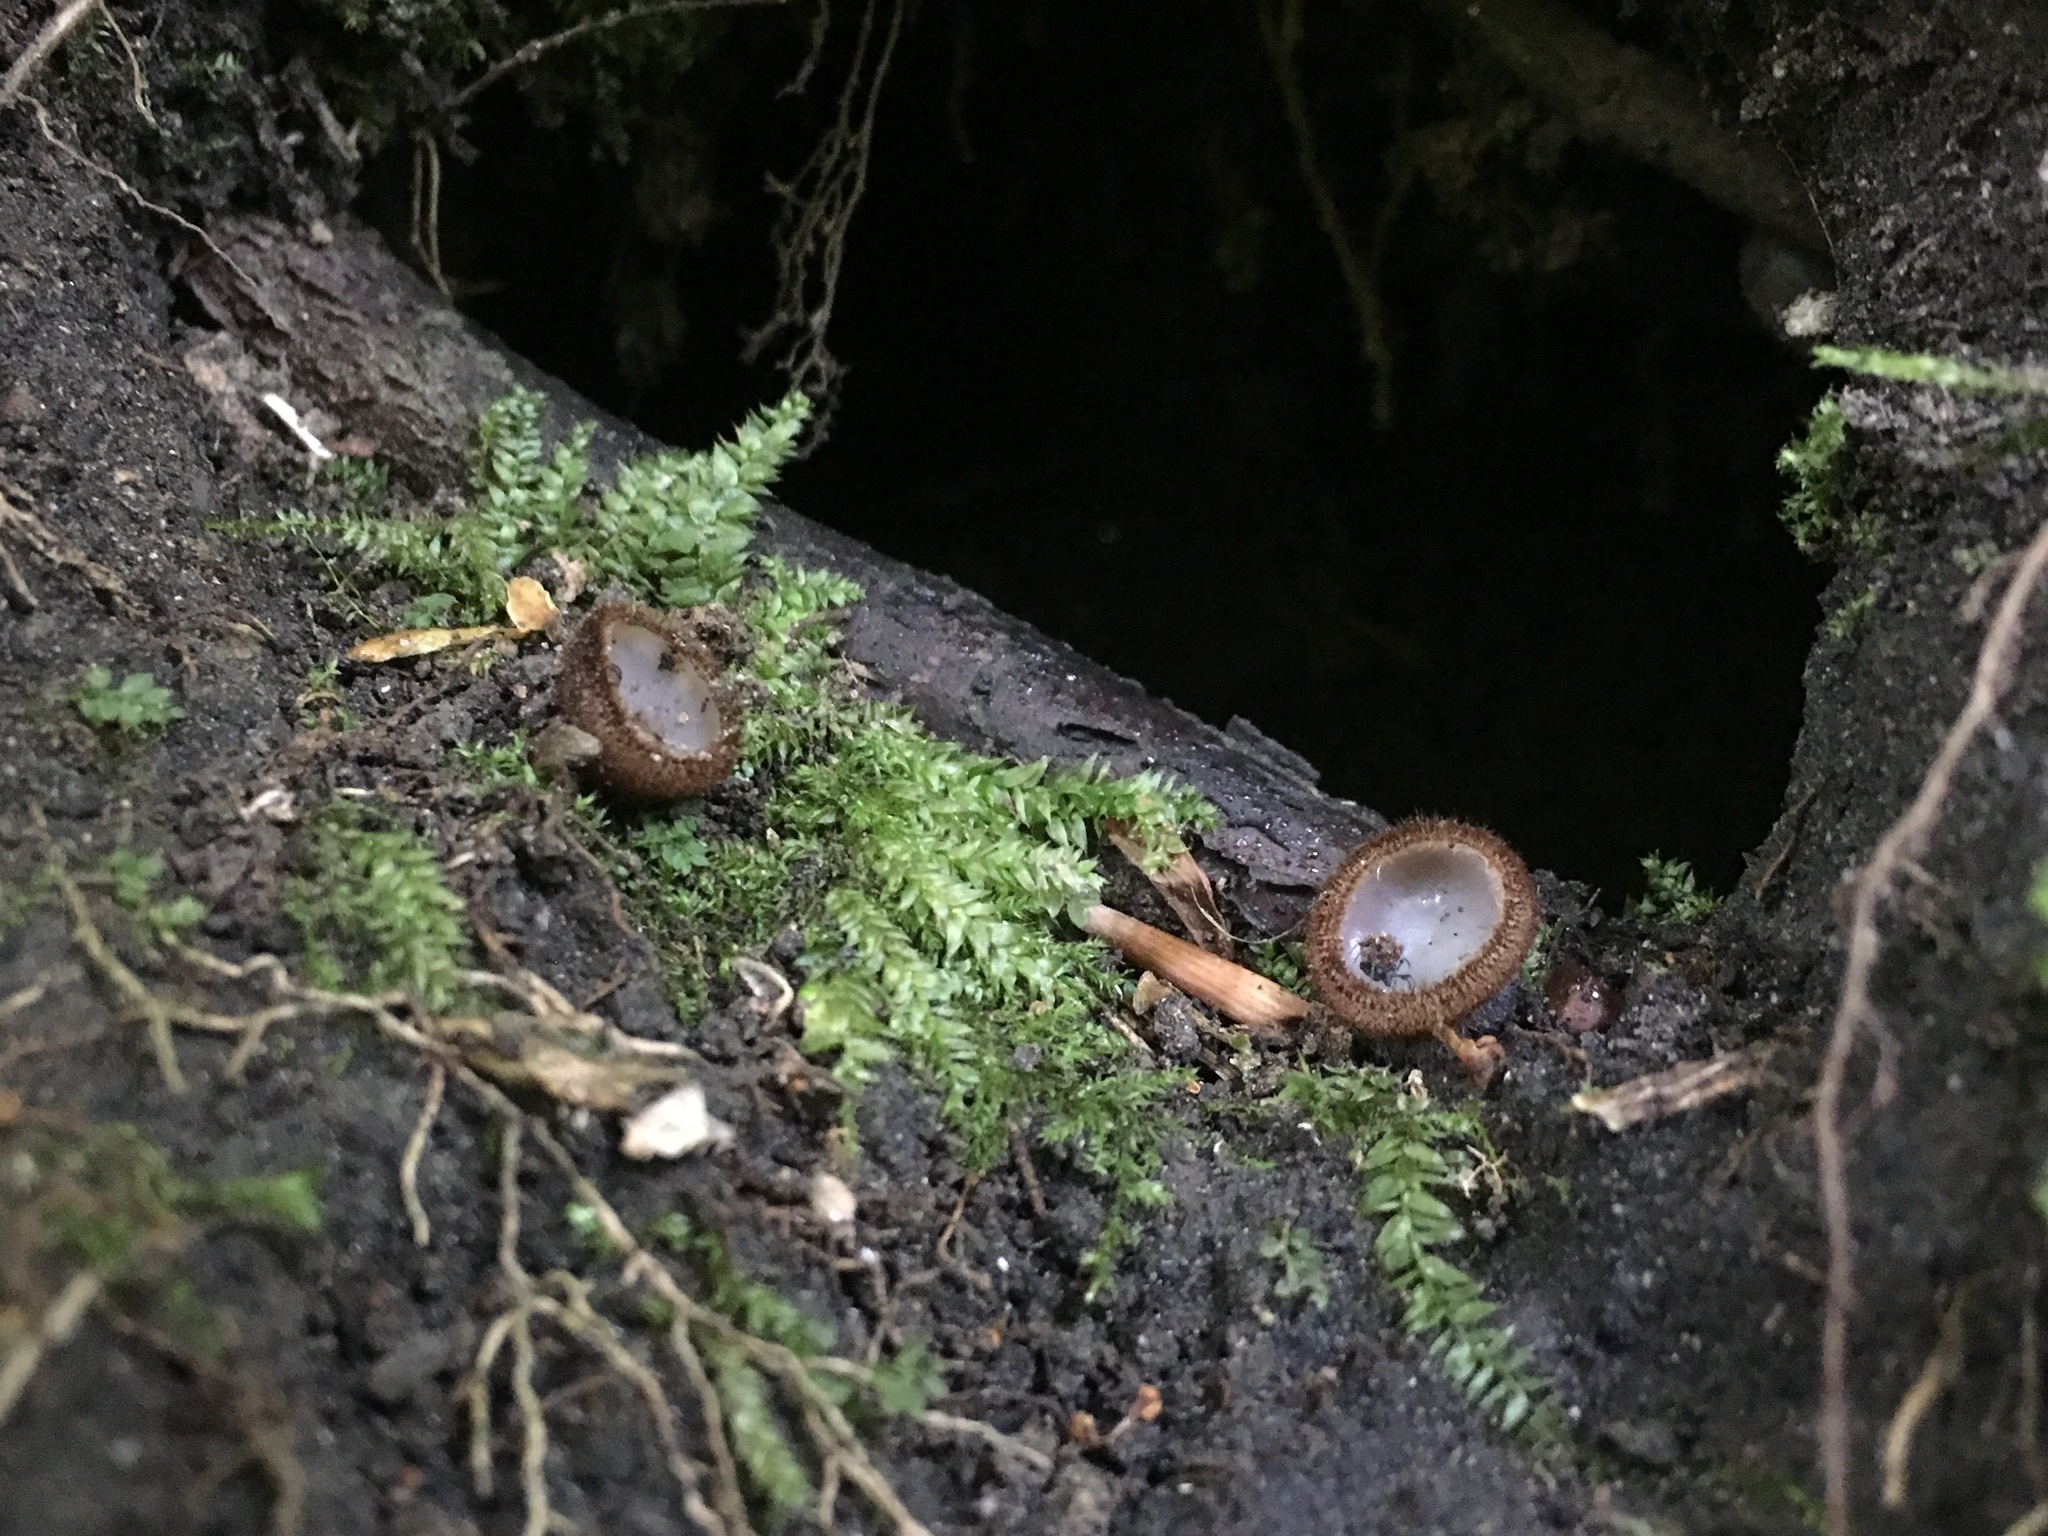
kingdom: Fungi
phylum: Ascomycota
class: Pezizomycetes
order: Pezizales
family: Pyronemataceae
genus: Humaria
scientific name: Humaria hemisphaerica
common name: Glazed cup
